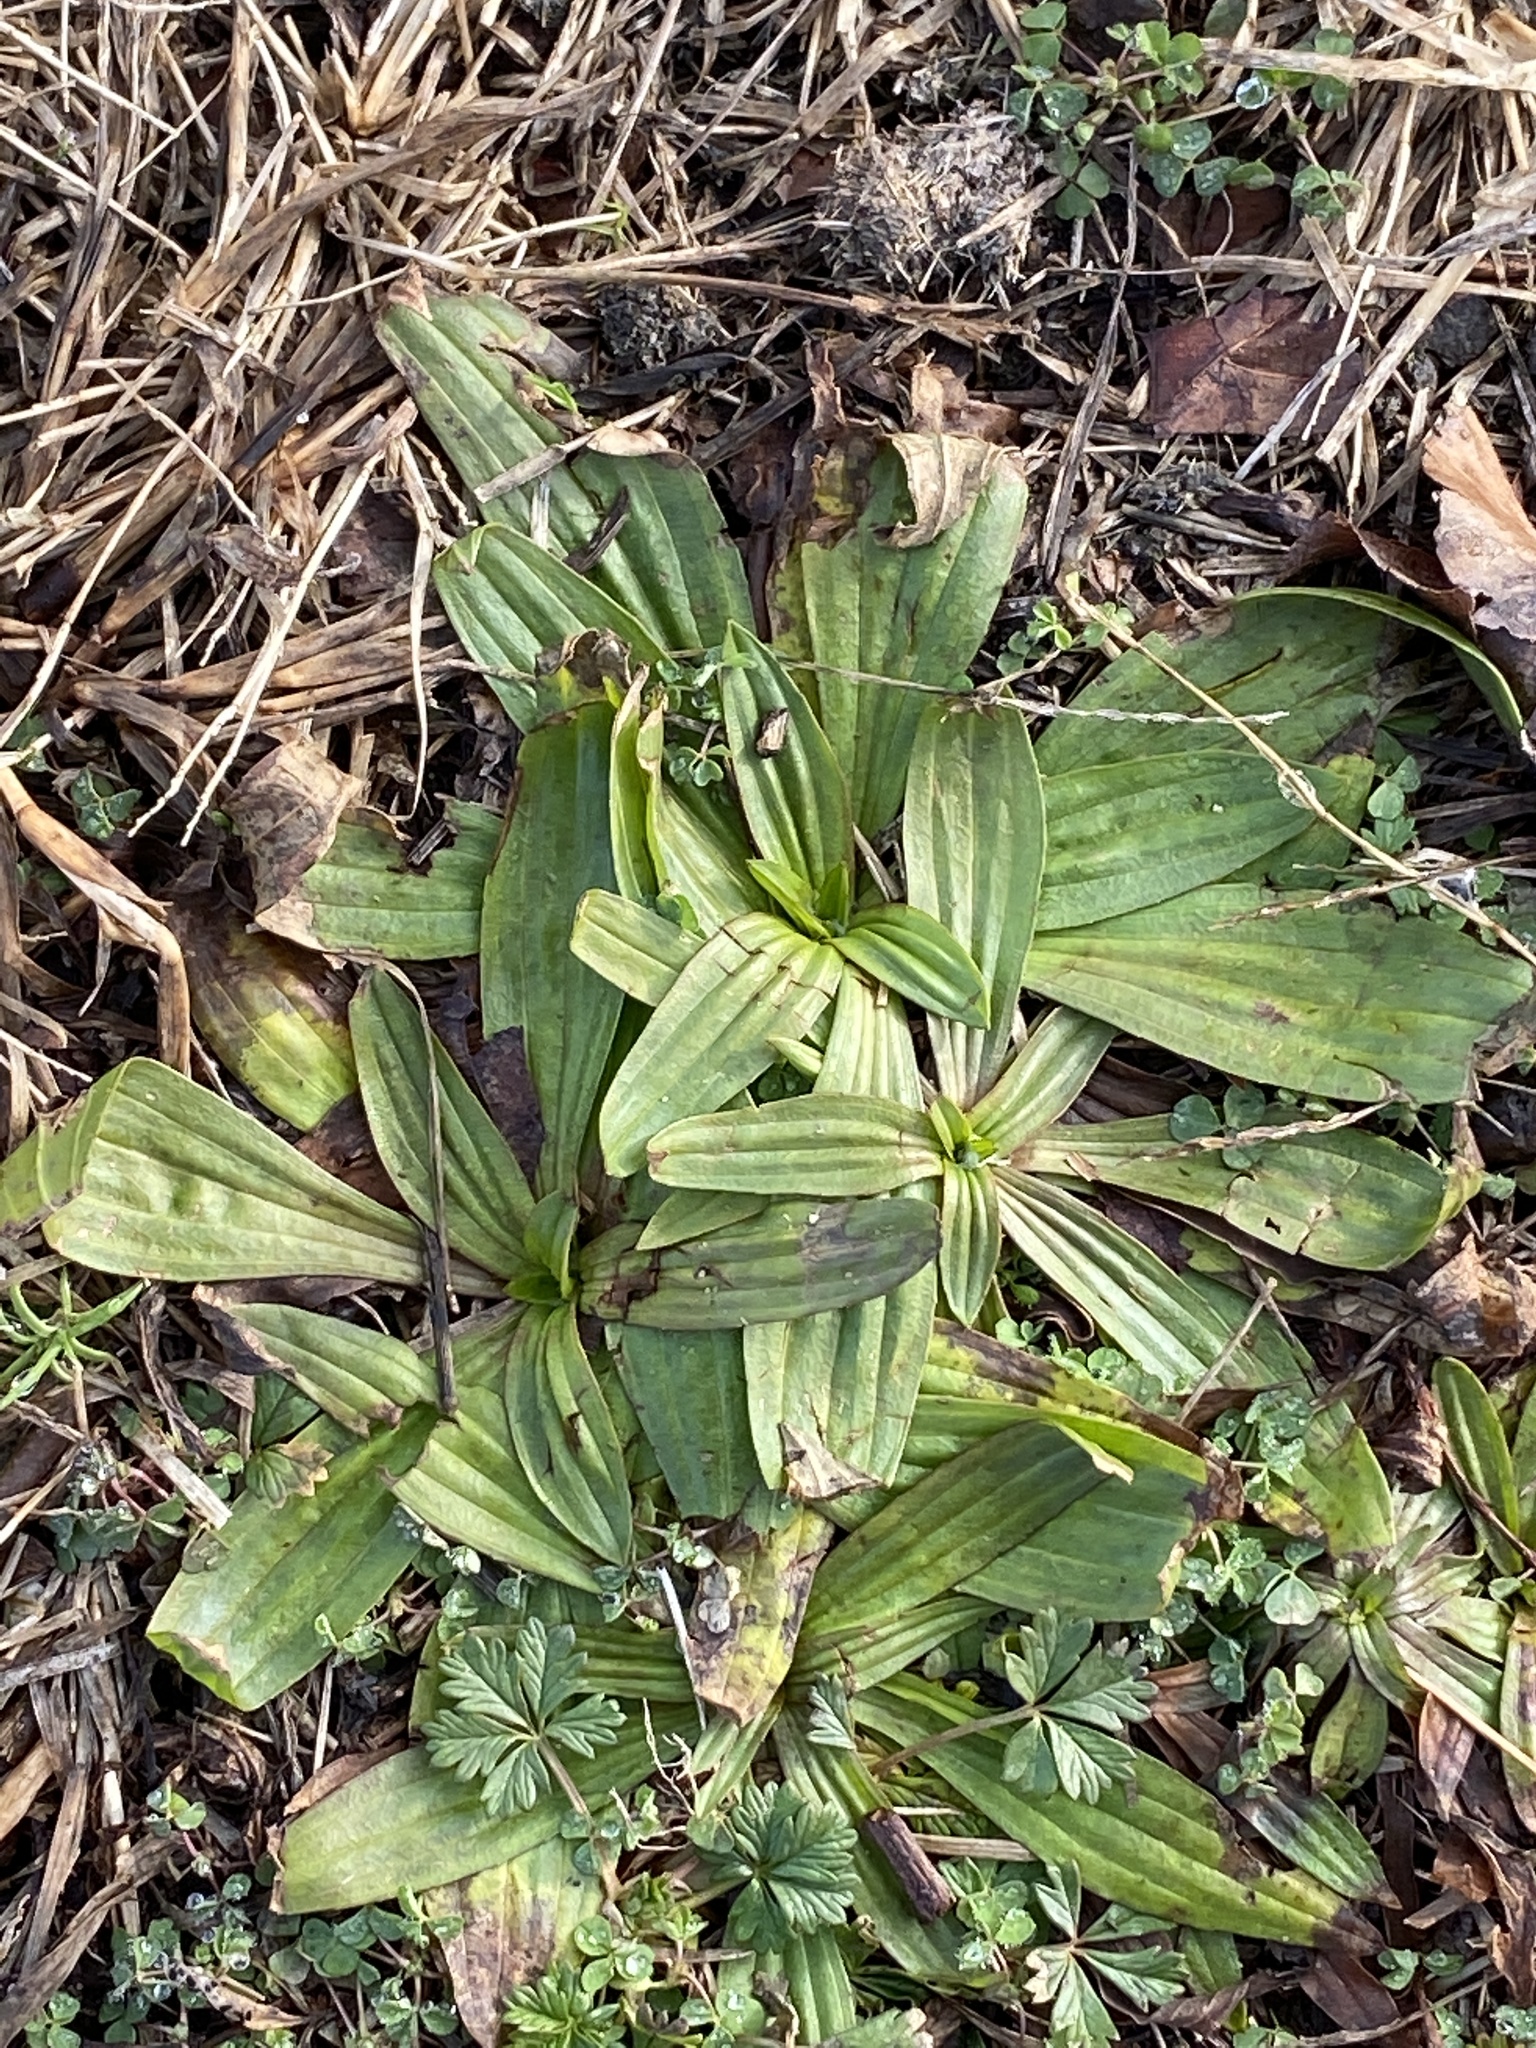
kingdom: Plantae
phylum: Tracheophyta
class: Magnoliopsida
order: Lamiales
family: Plantaginaceae
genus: Plantago
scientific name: Plantago lanceolata
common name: Ribwort plantain
